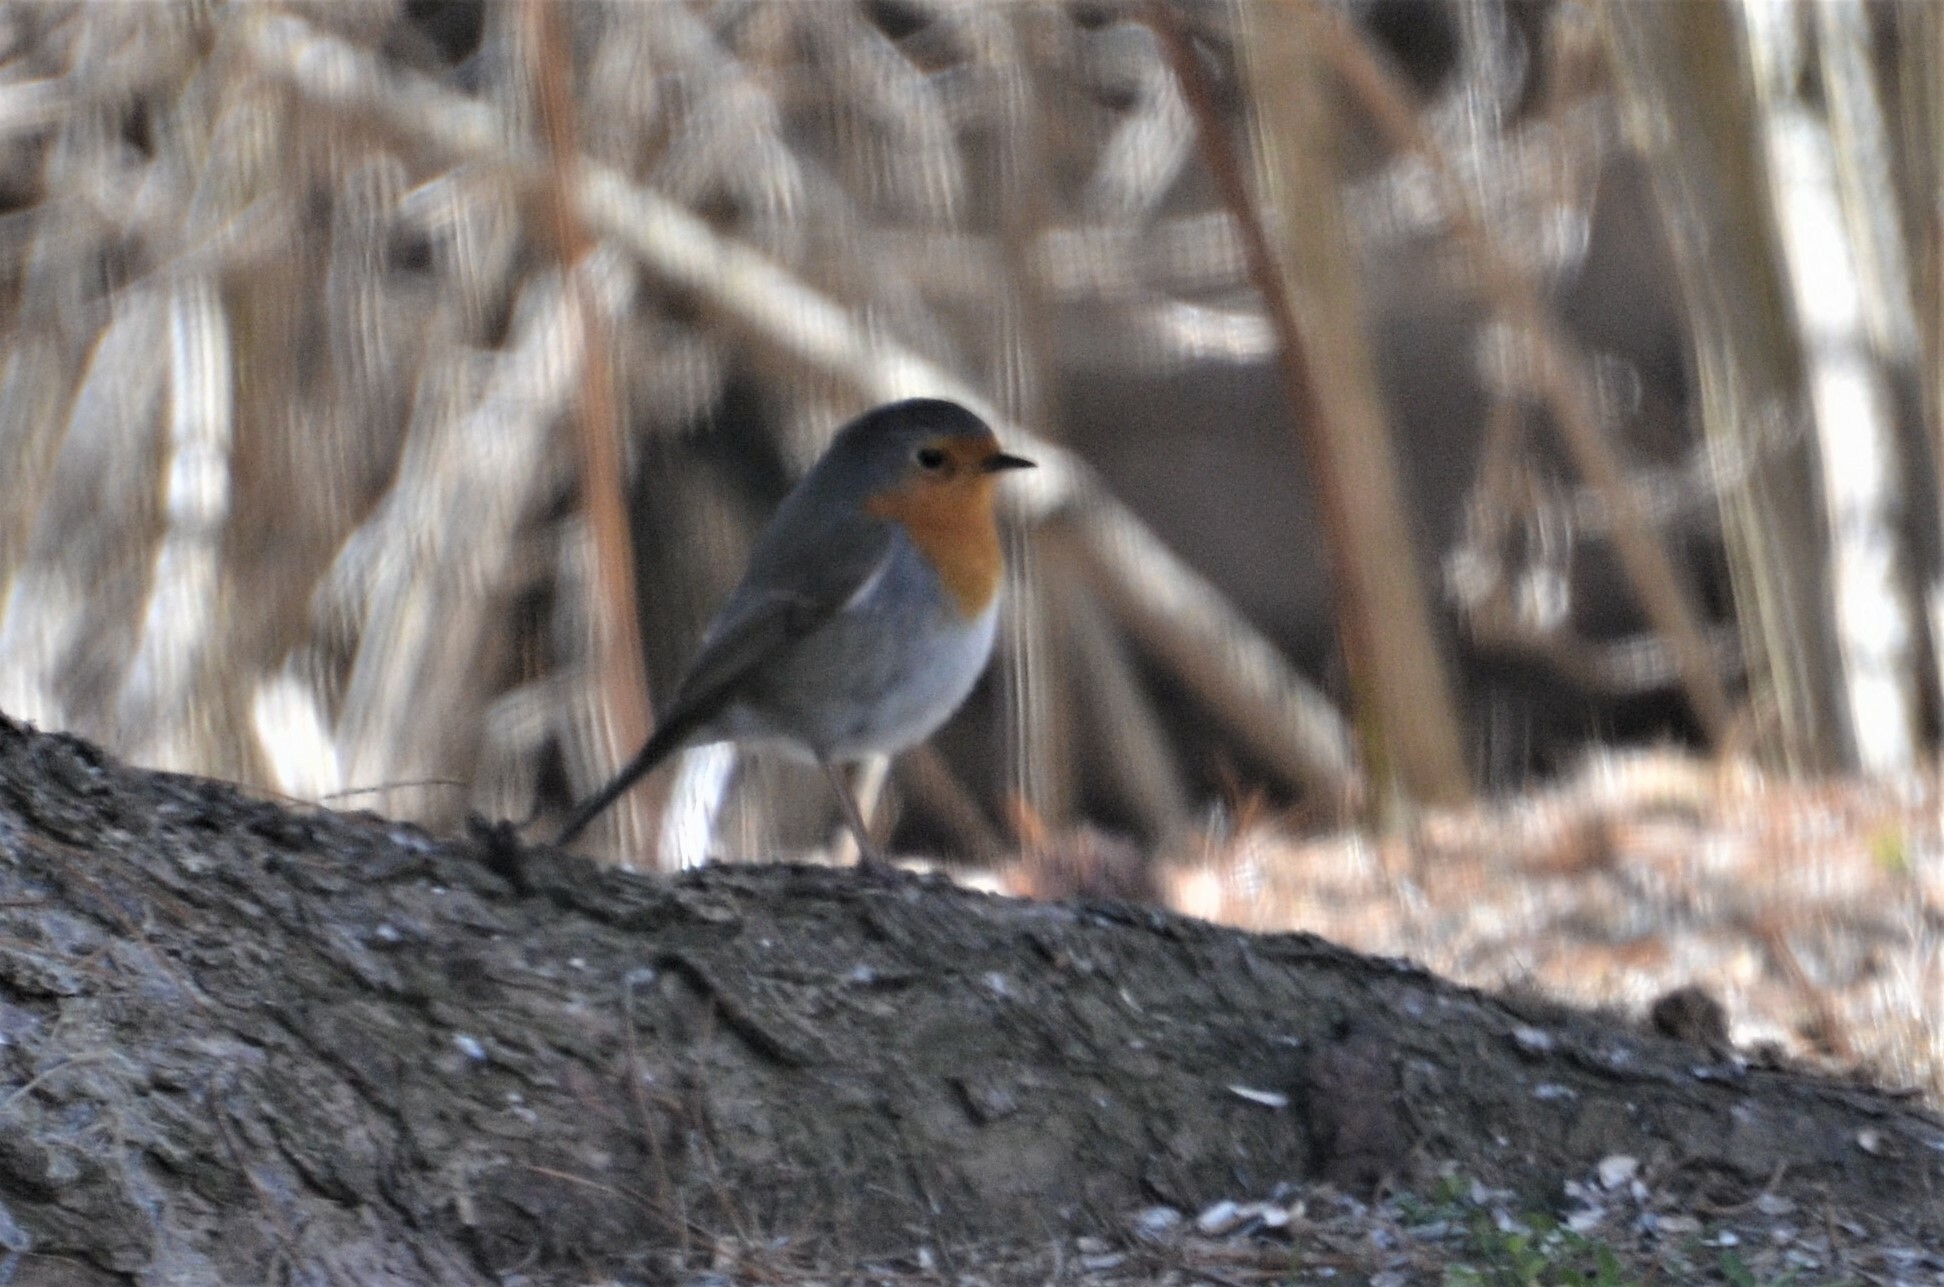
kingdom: Animalia
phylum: Chordata
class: Aves
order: Passeriformes
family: Muscicapidae
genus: Erithacus
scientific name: Erithacus rubecula
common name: European robin
